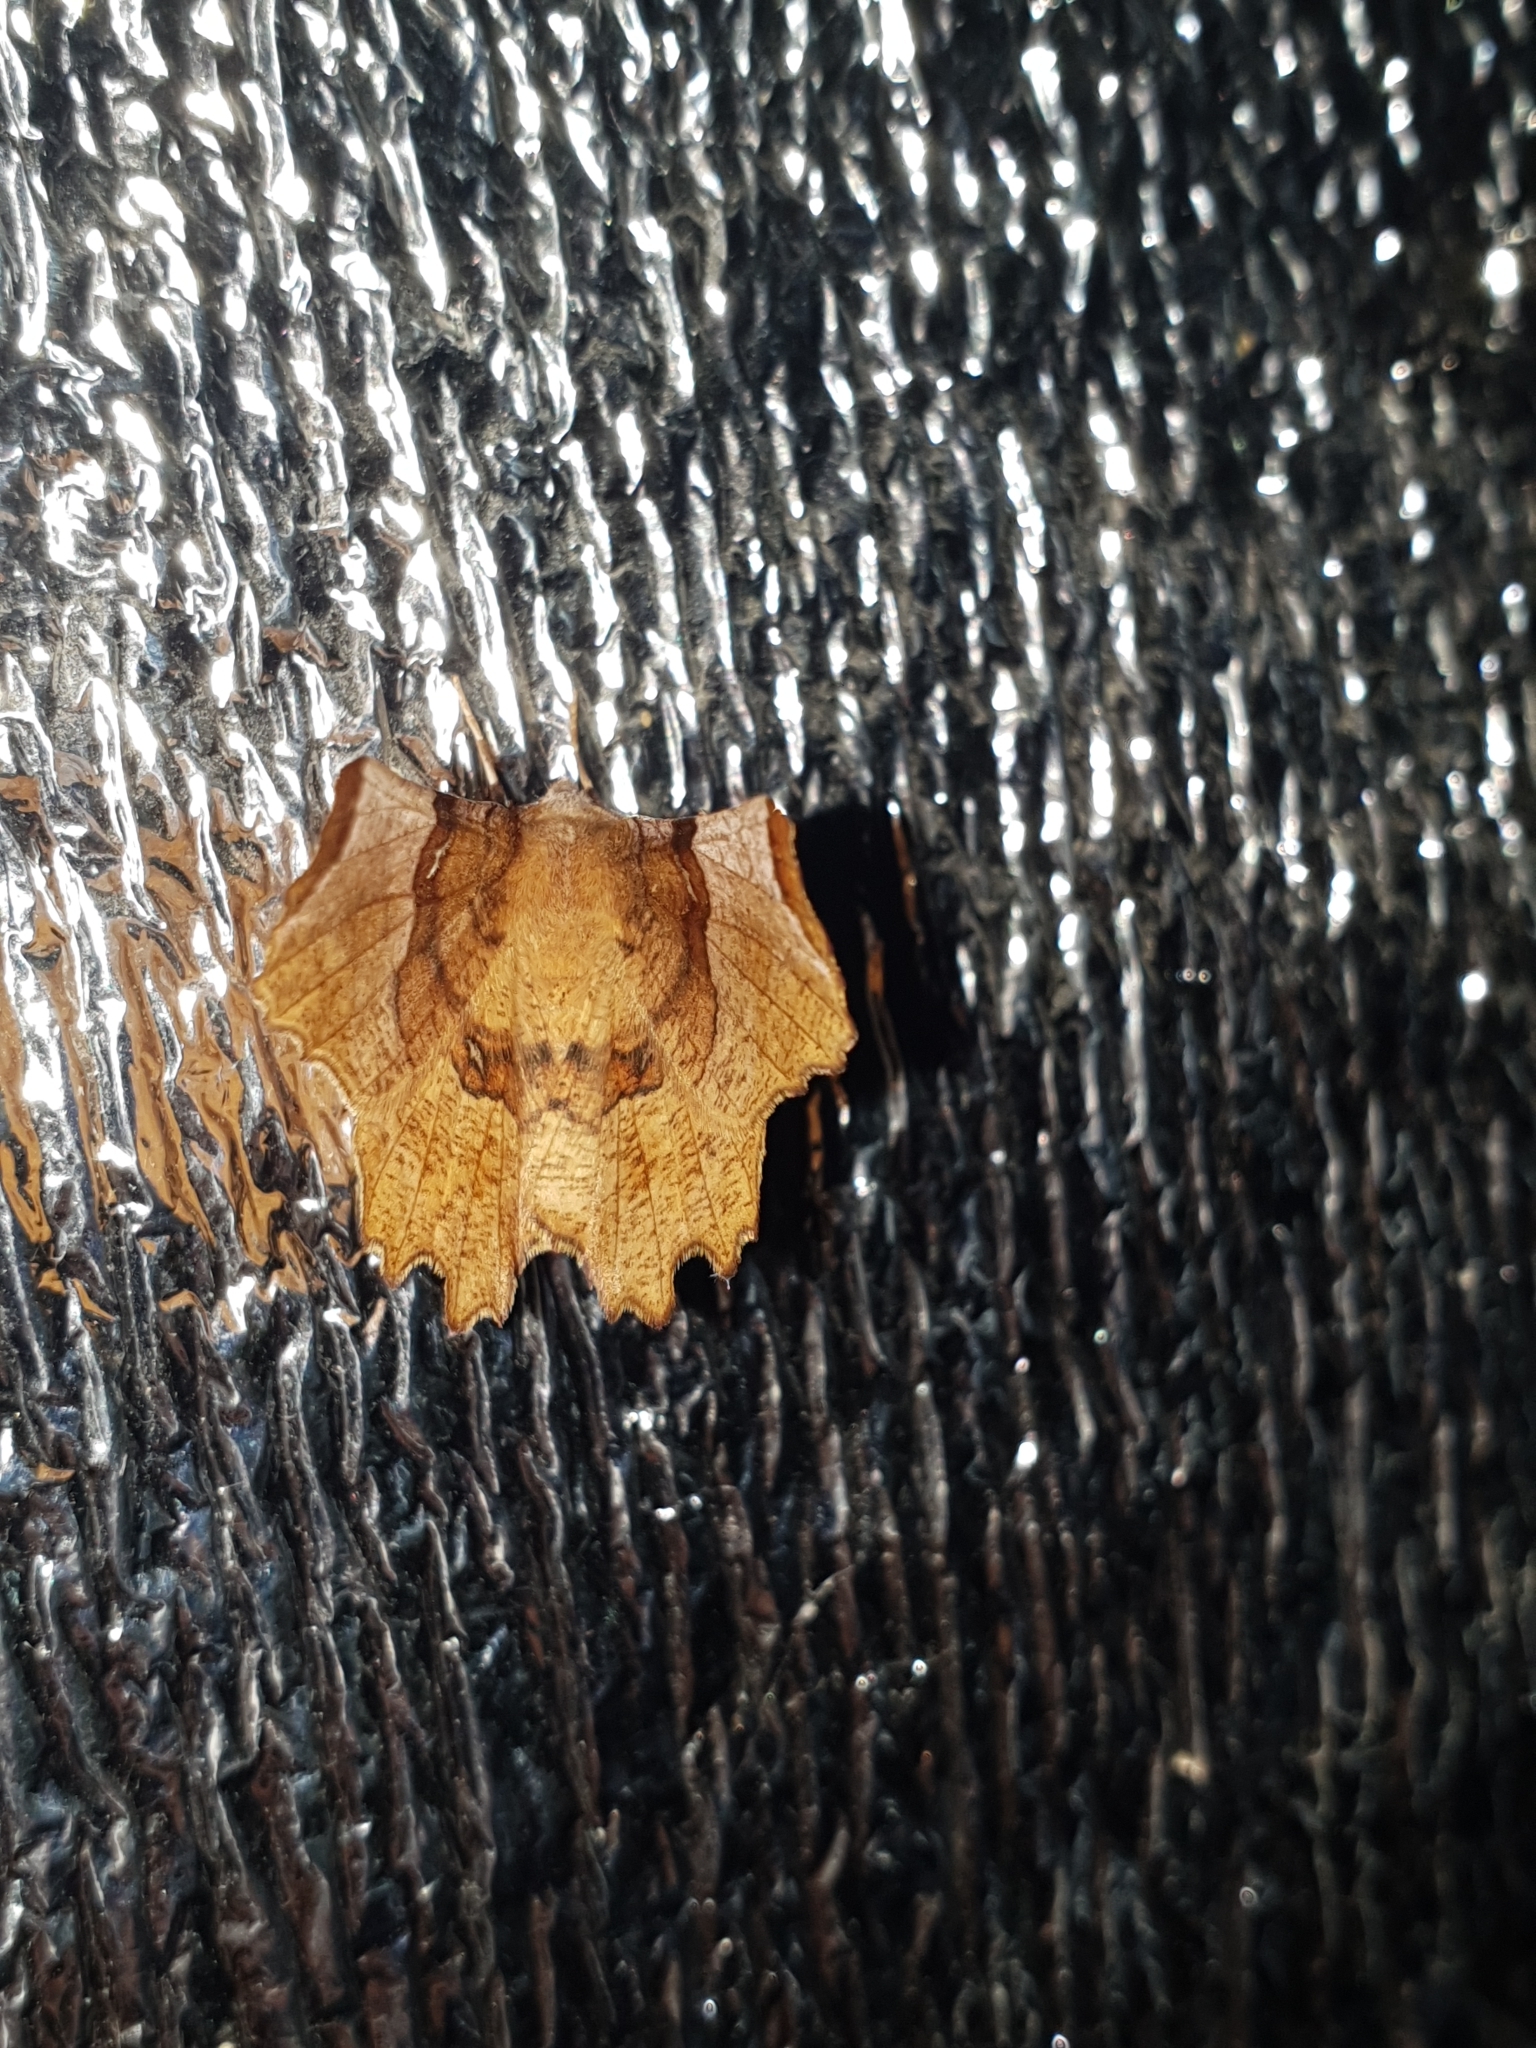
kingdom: Animalia
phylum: Arthropoda
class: Insecta
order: Lepidoptera
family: Geometridae
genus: Selenia
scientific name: Selenia lunularia
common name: Lunar thorn
